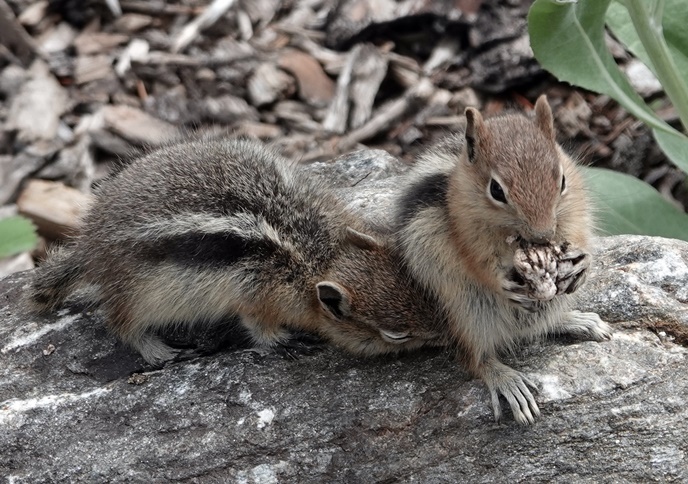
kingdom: Animalia
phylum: Chordata
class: Mammalia
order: Rodentia
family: Sciuridae
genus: Callospermophilus
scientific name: Callospermophilus lateralis
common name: Golden-mantled ground squirrel
